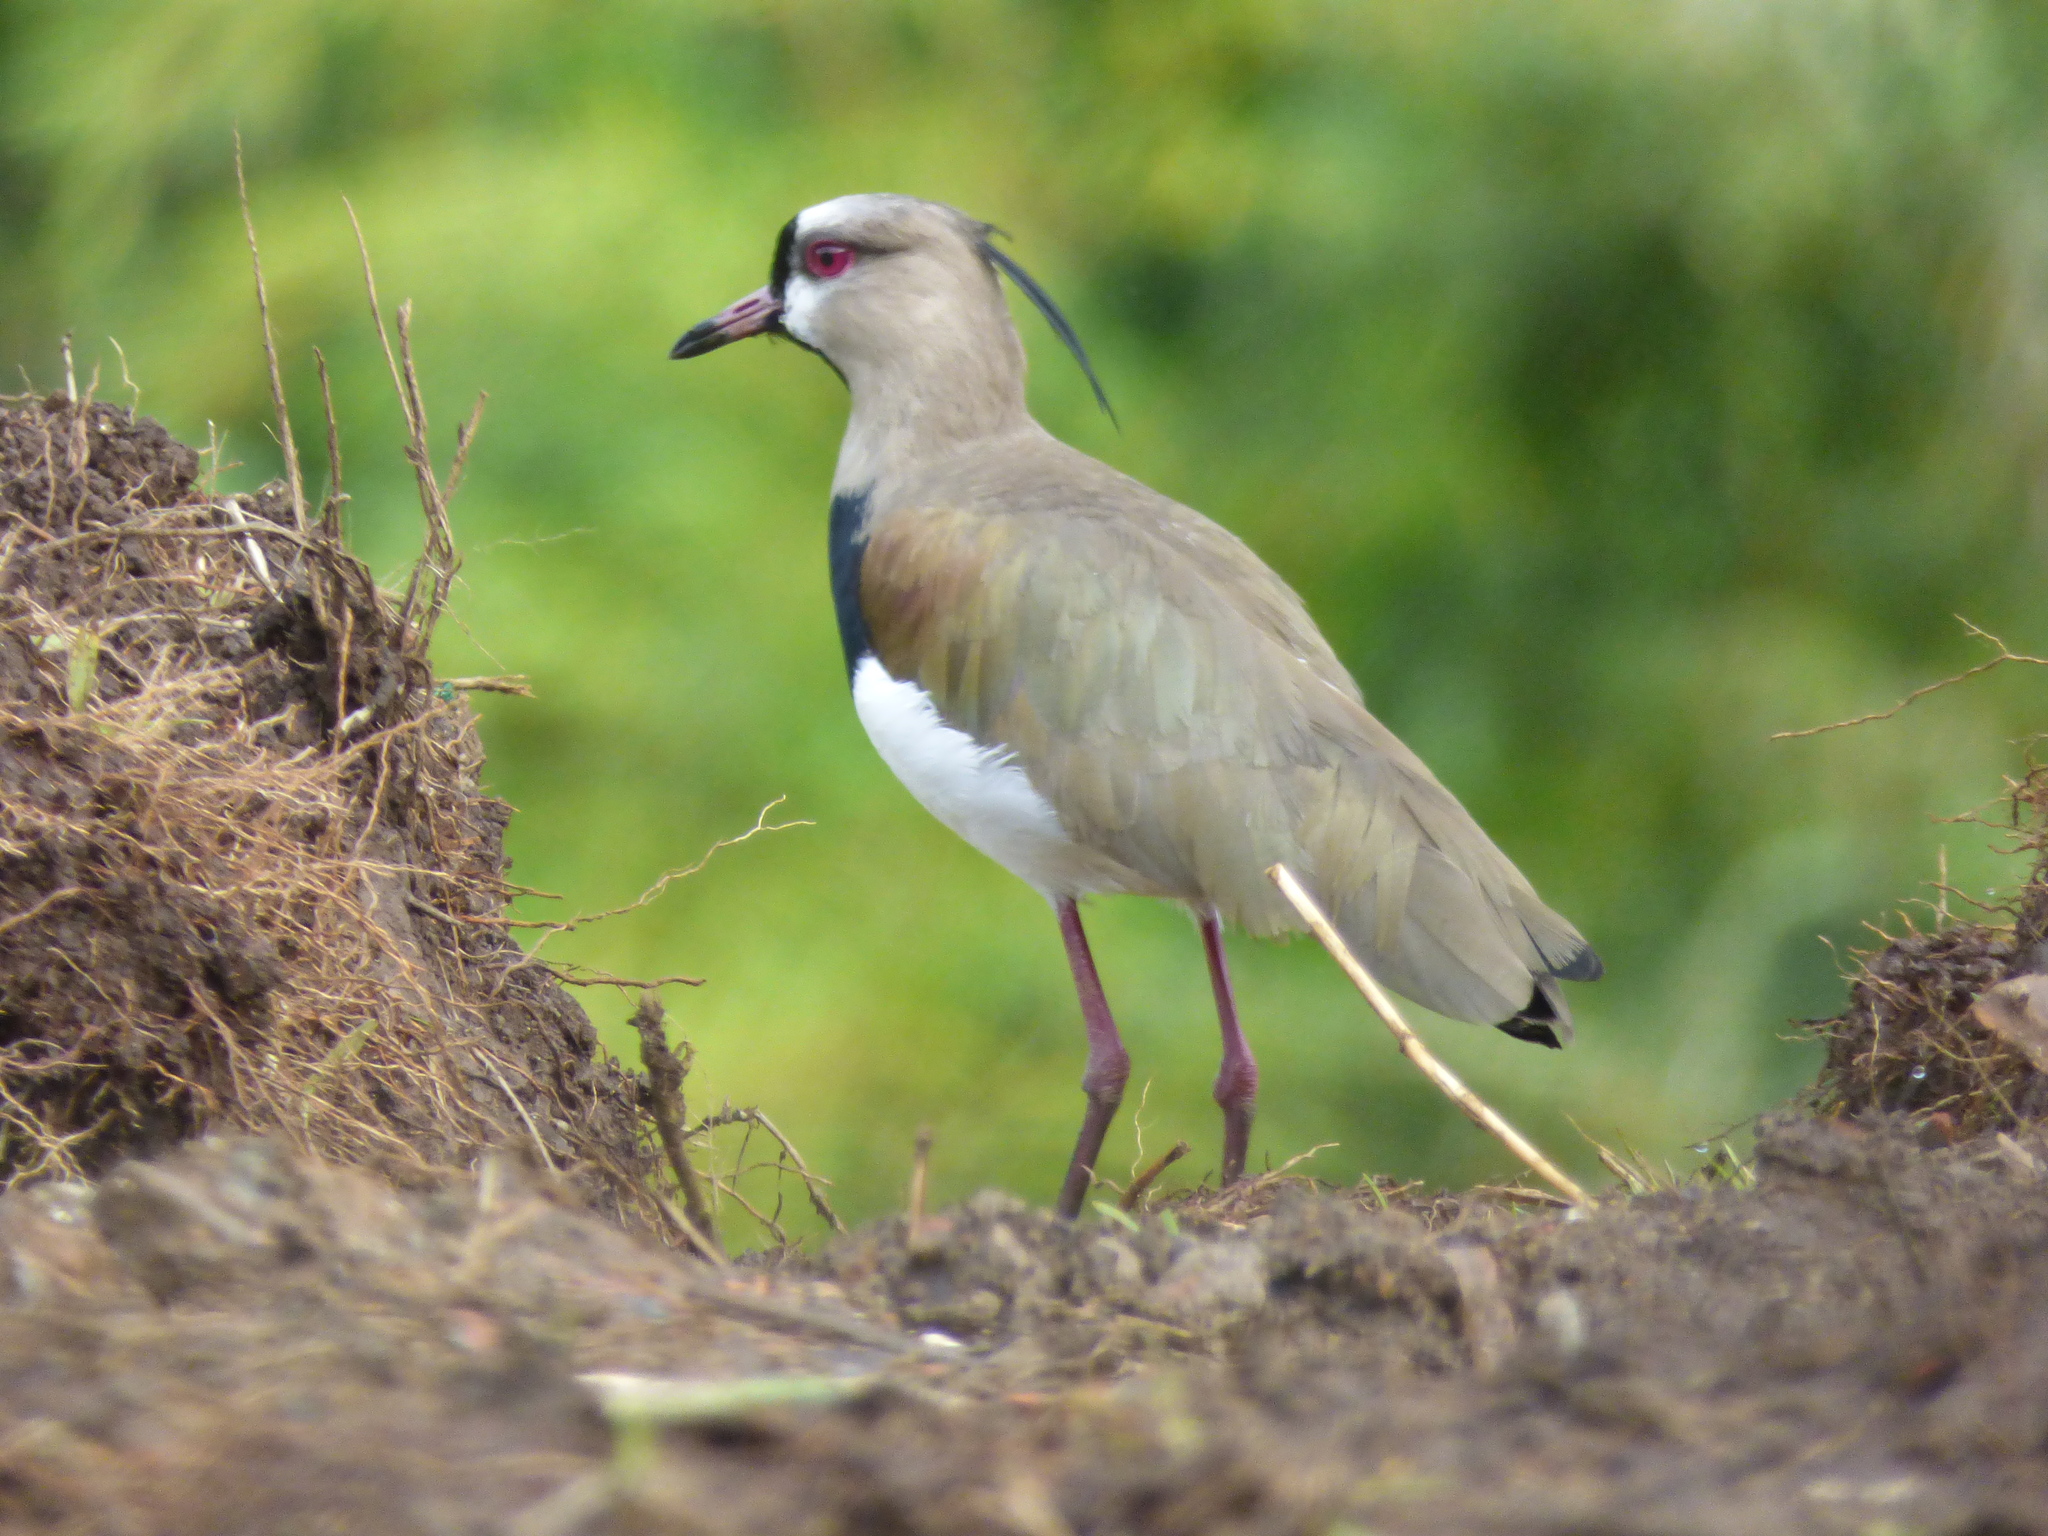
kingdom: Animalia
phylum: Chordata
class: Aves
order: Charadriiformes
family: Charadriidae
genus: Vanellus
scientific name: Vanellus chilensis
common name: Southern lapwing
